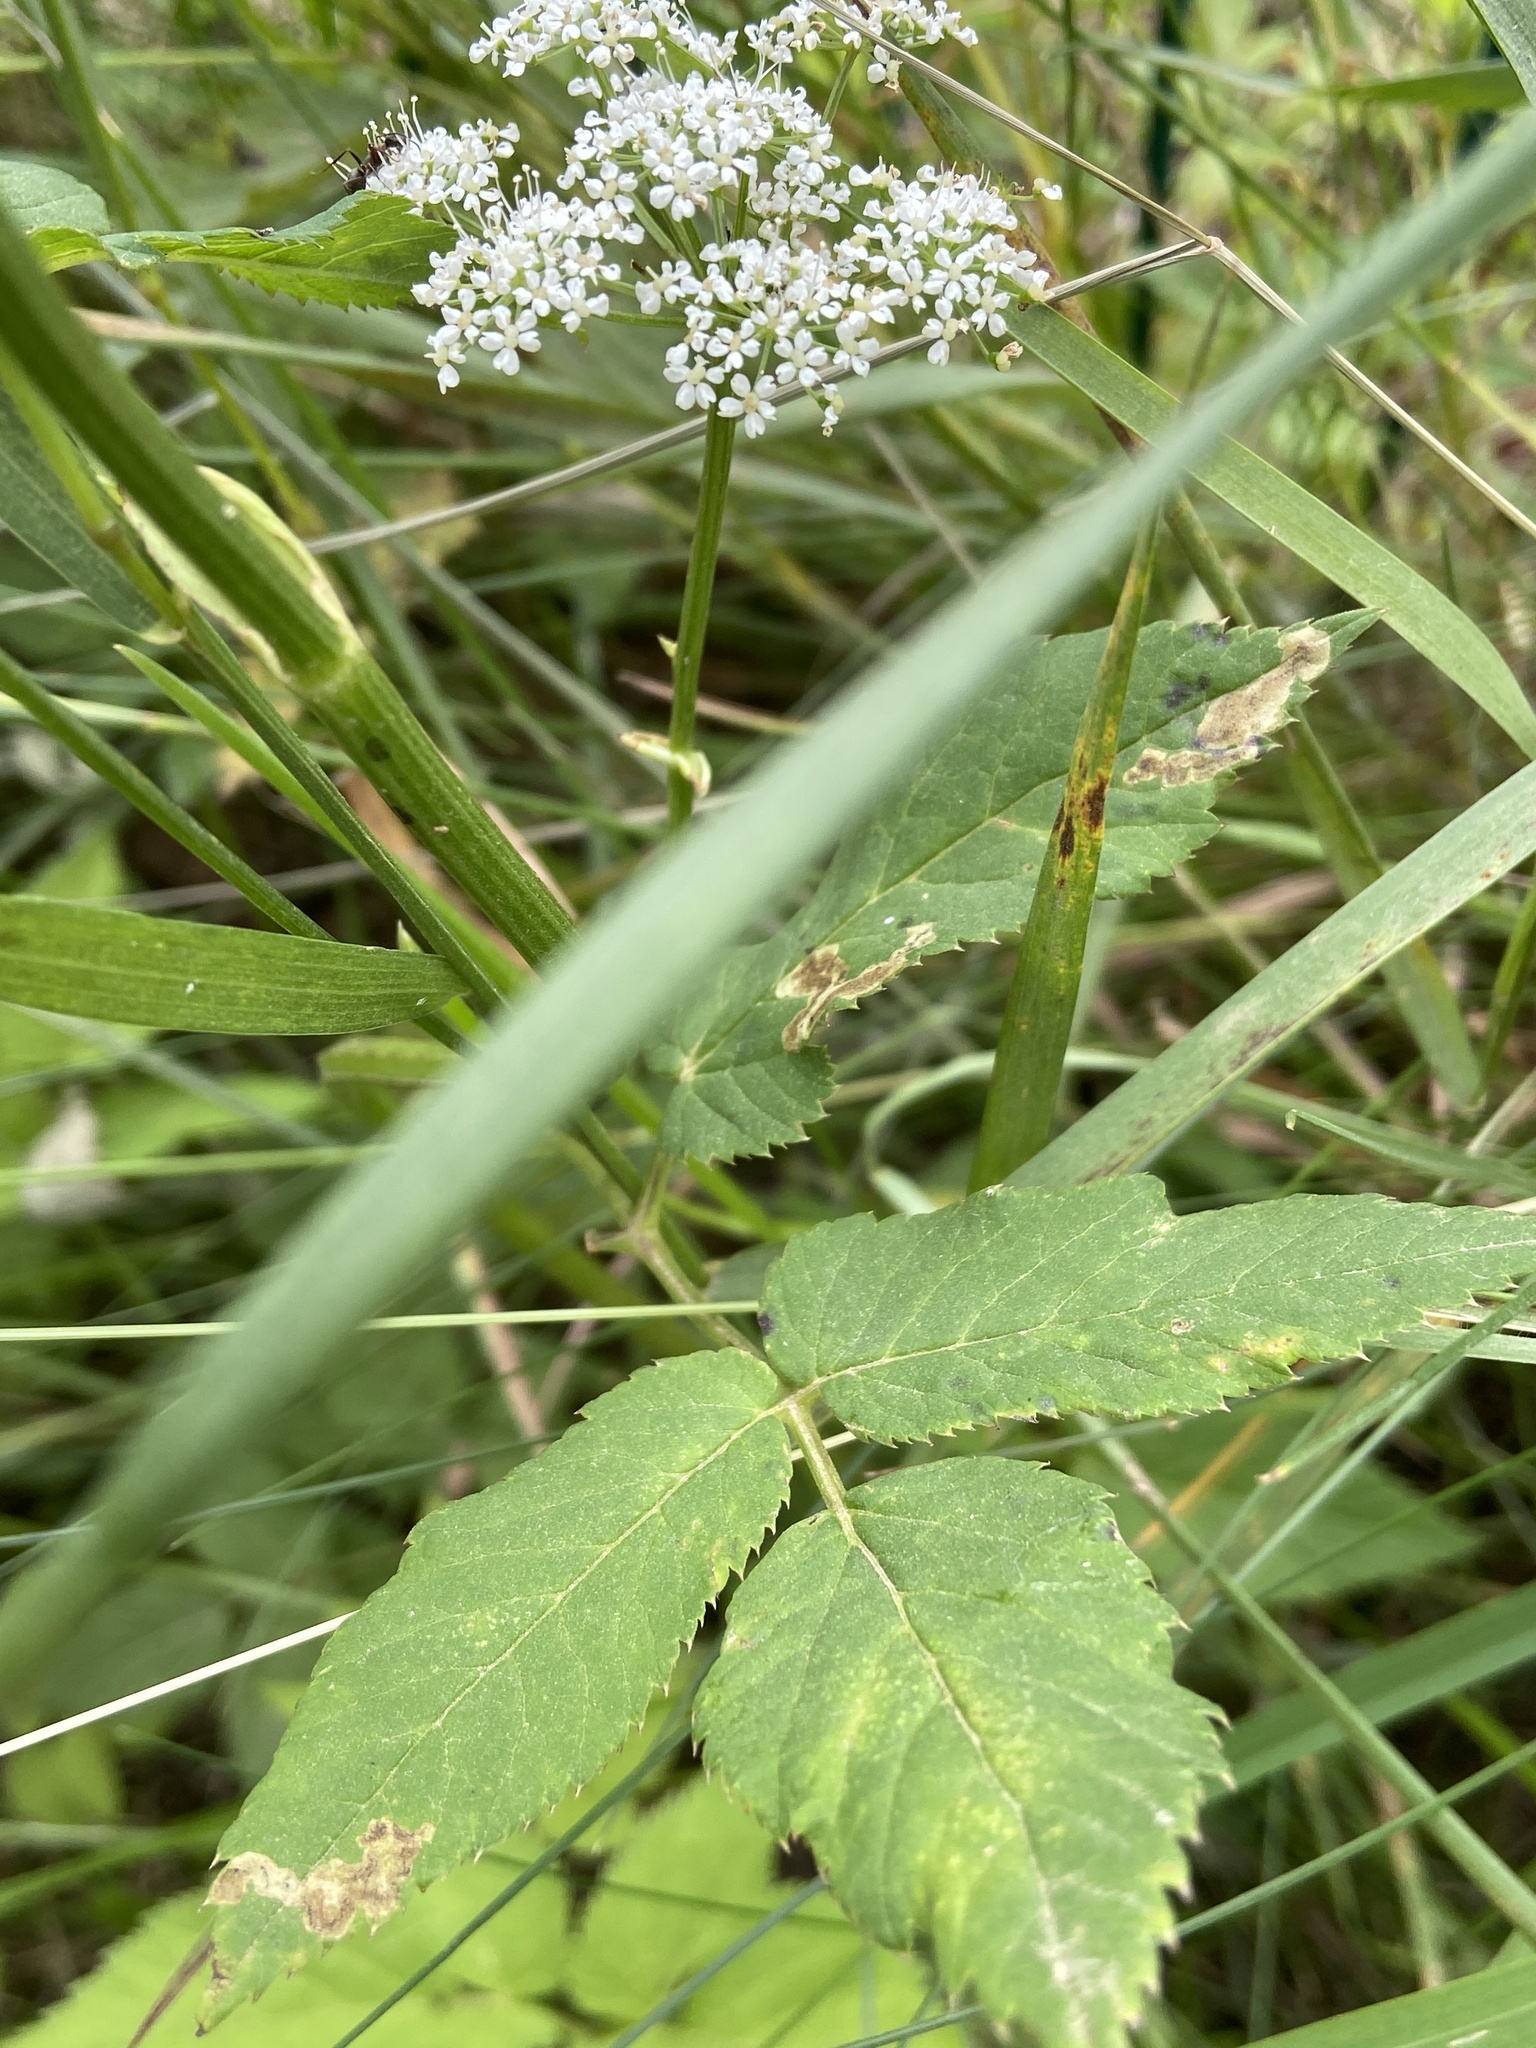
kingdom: Plantae
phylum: Tracheophyta
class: Magnoliopsida
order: Apiales
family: Apiaceae
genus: Aegopodium
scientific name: Aegopodium podagraria
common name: Ground-elder
